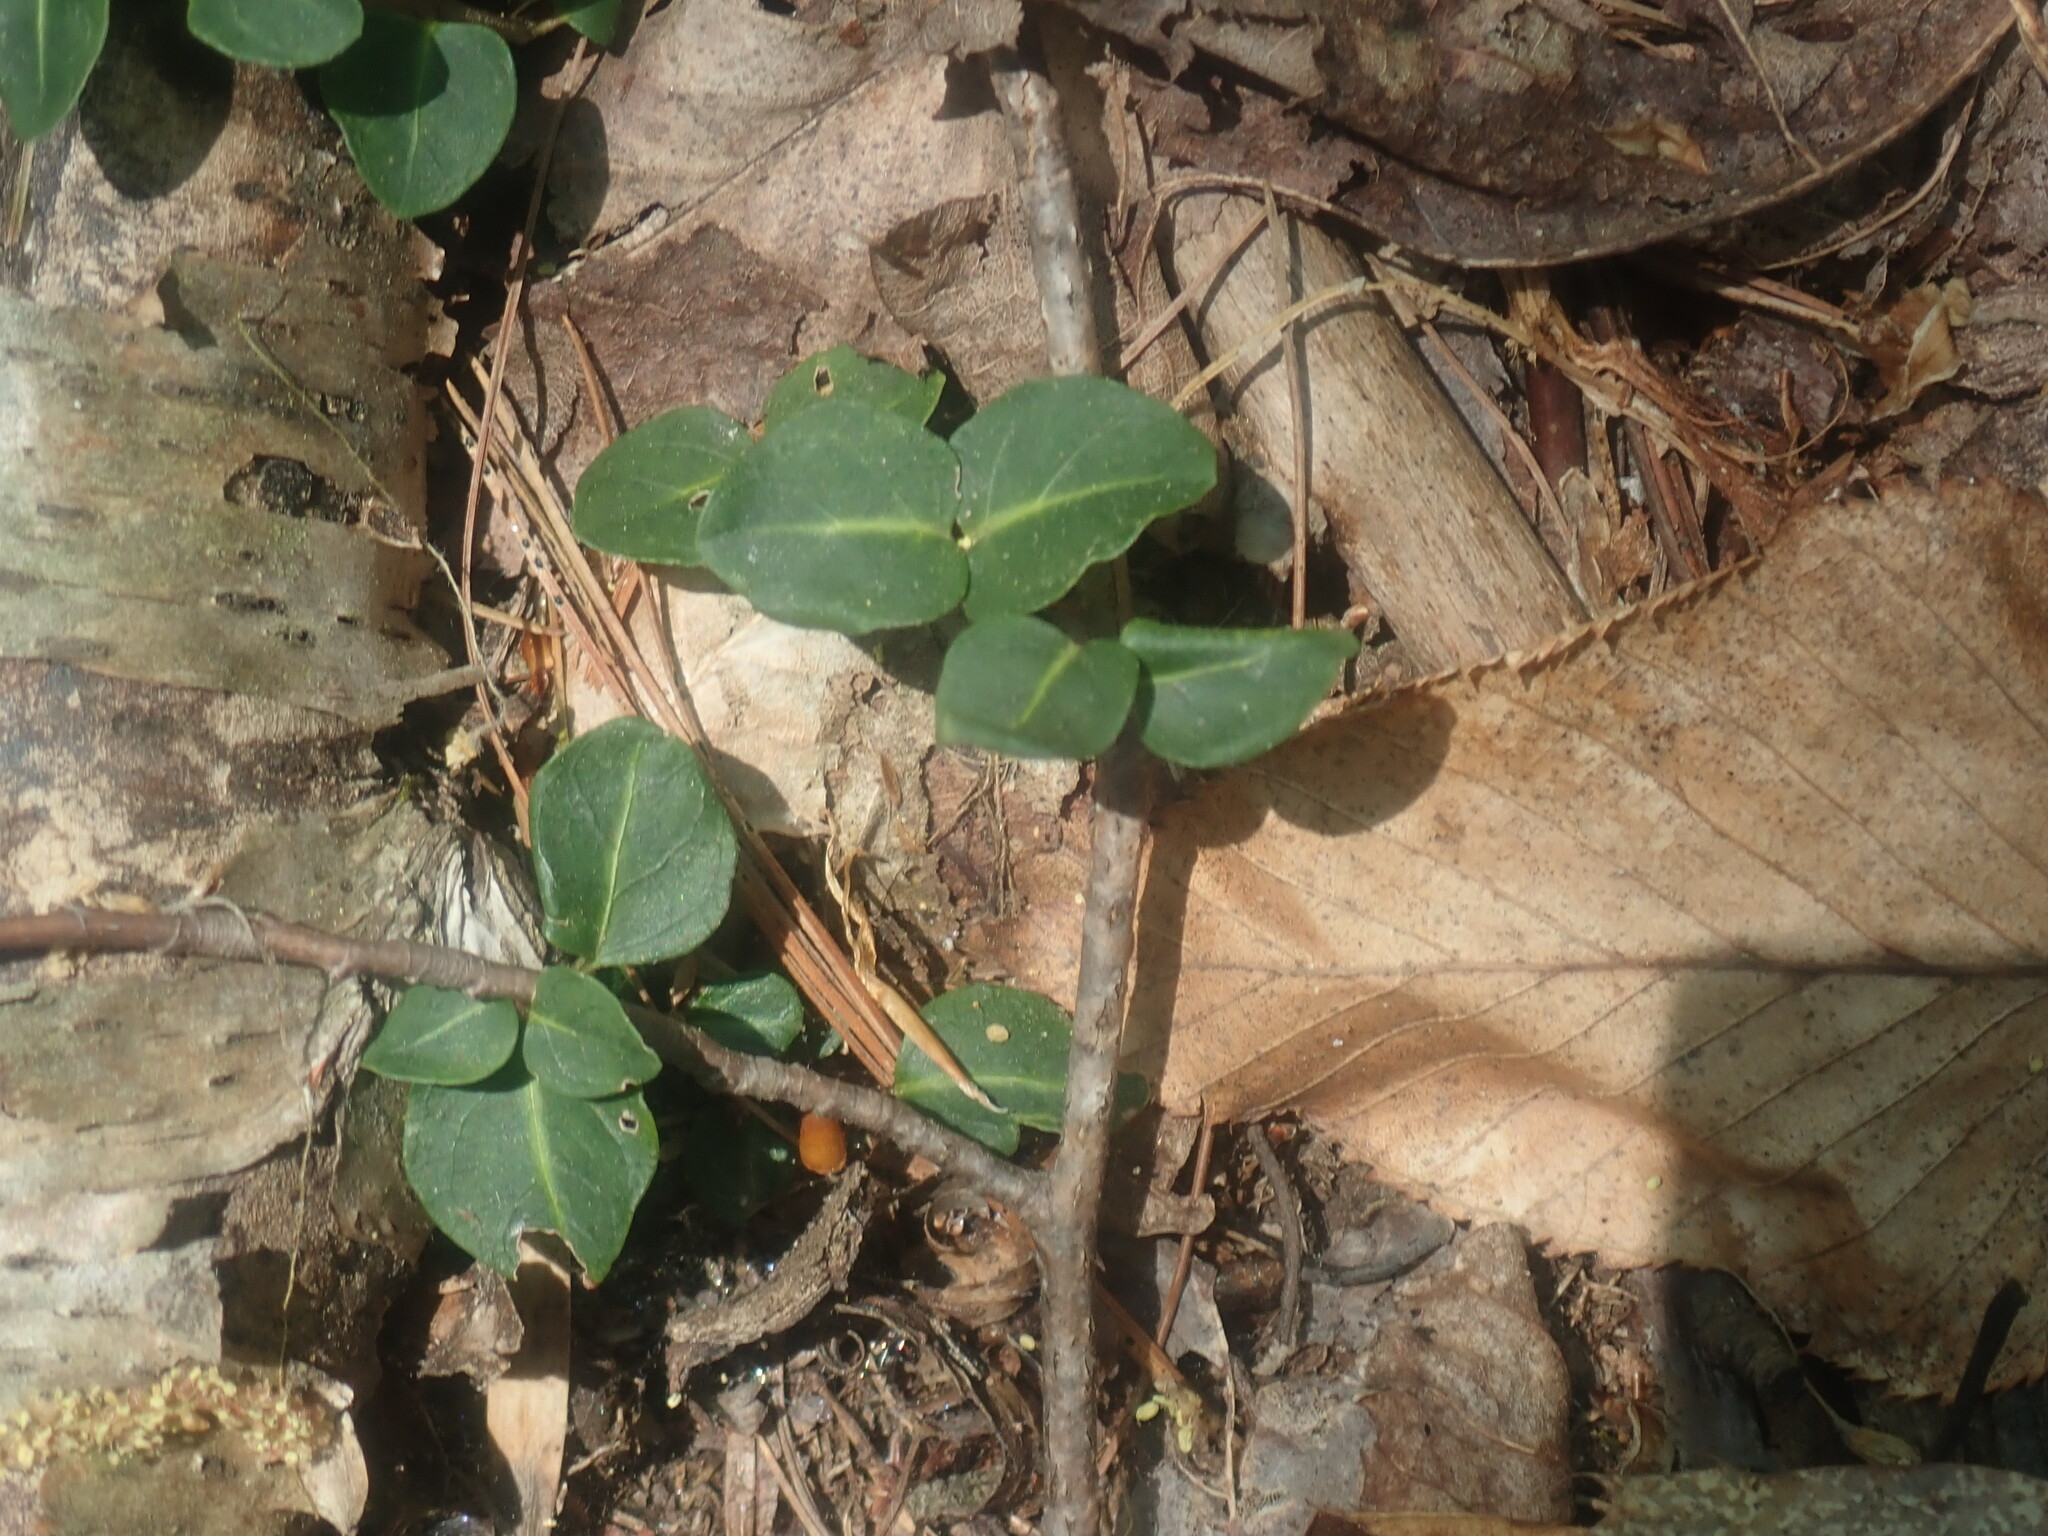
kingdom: Plantae
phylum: Tracheophyta
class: Magnoliopsida
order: Gentianales
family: Rubiaceae
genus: Mitchella
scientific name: Mitchella repens
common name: Partridge-berry
